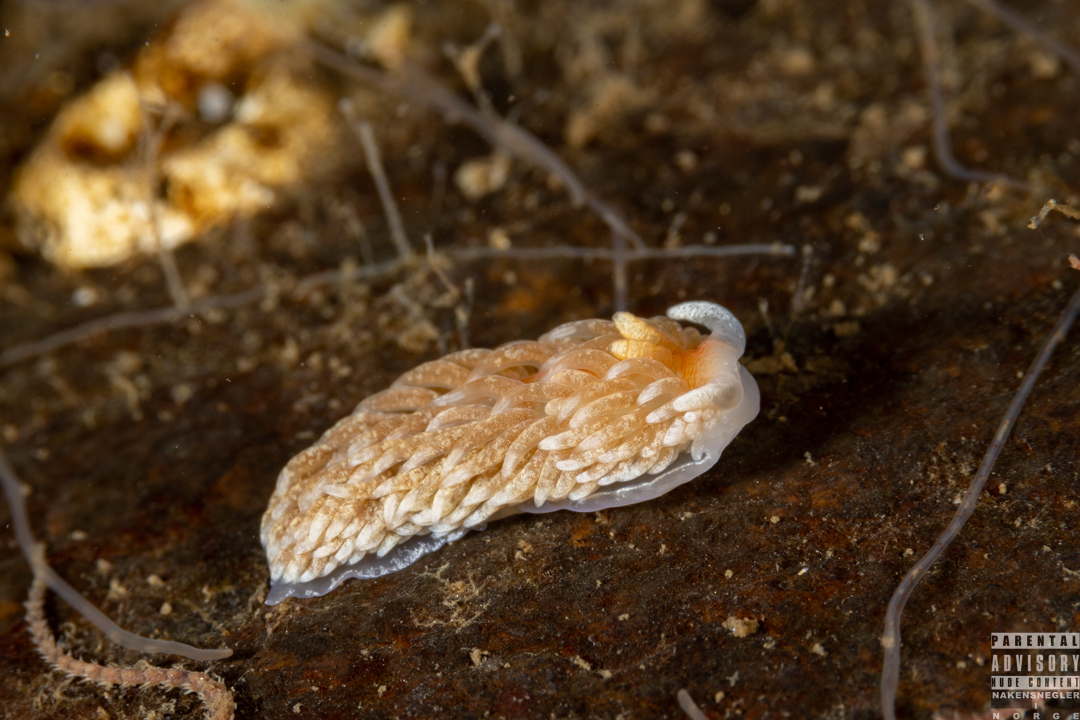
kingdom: Animalia
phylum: Mollusca
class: Gastropoda
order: Nudibranchia
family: Aeolidiidae
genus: Aeolidiella
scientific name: Aeolidiella glauca
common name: Orange-brown aeolid
